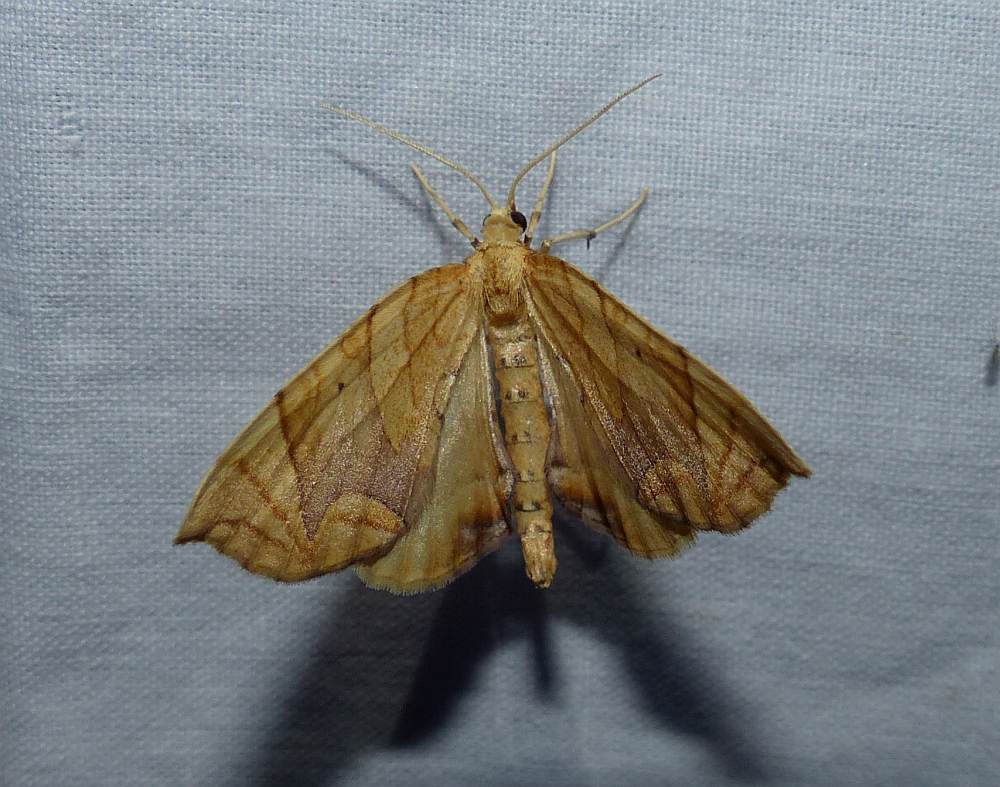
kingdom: Animalia
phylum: Arthropoda
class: Insecta
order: Lepidoptera
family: Geometridae
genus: Eulithis
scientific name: Eulithis
